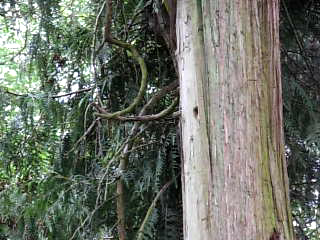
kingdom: Animalia
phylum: Chordata
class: Aves
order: Piciformes
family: Picidae
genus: Dryocopus
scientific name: Dryocopus pileatus
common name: Pileated woodpecker
